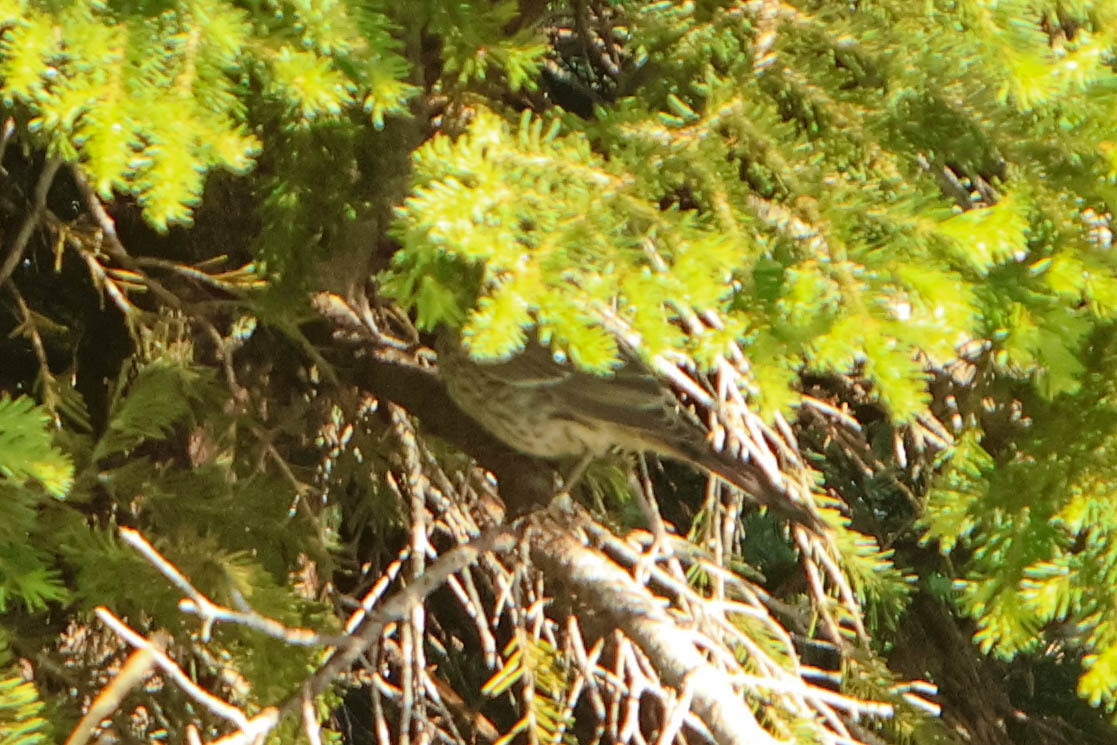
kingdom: Animalia
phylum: Chordata
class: Aves
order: Passeriformes
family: Mimidae
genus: Oreoscoptes
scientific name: Oreoscoptes montanus
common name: Sage thrasher
